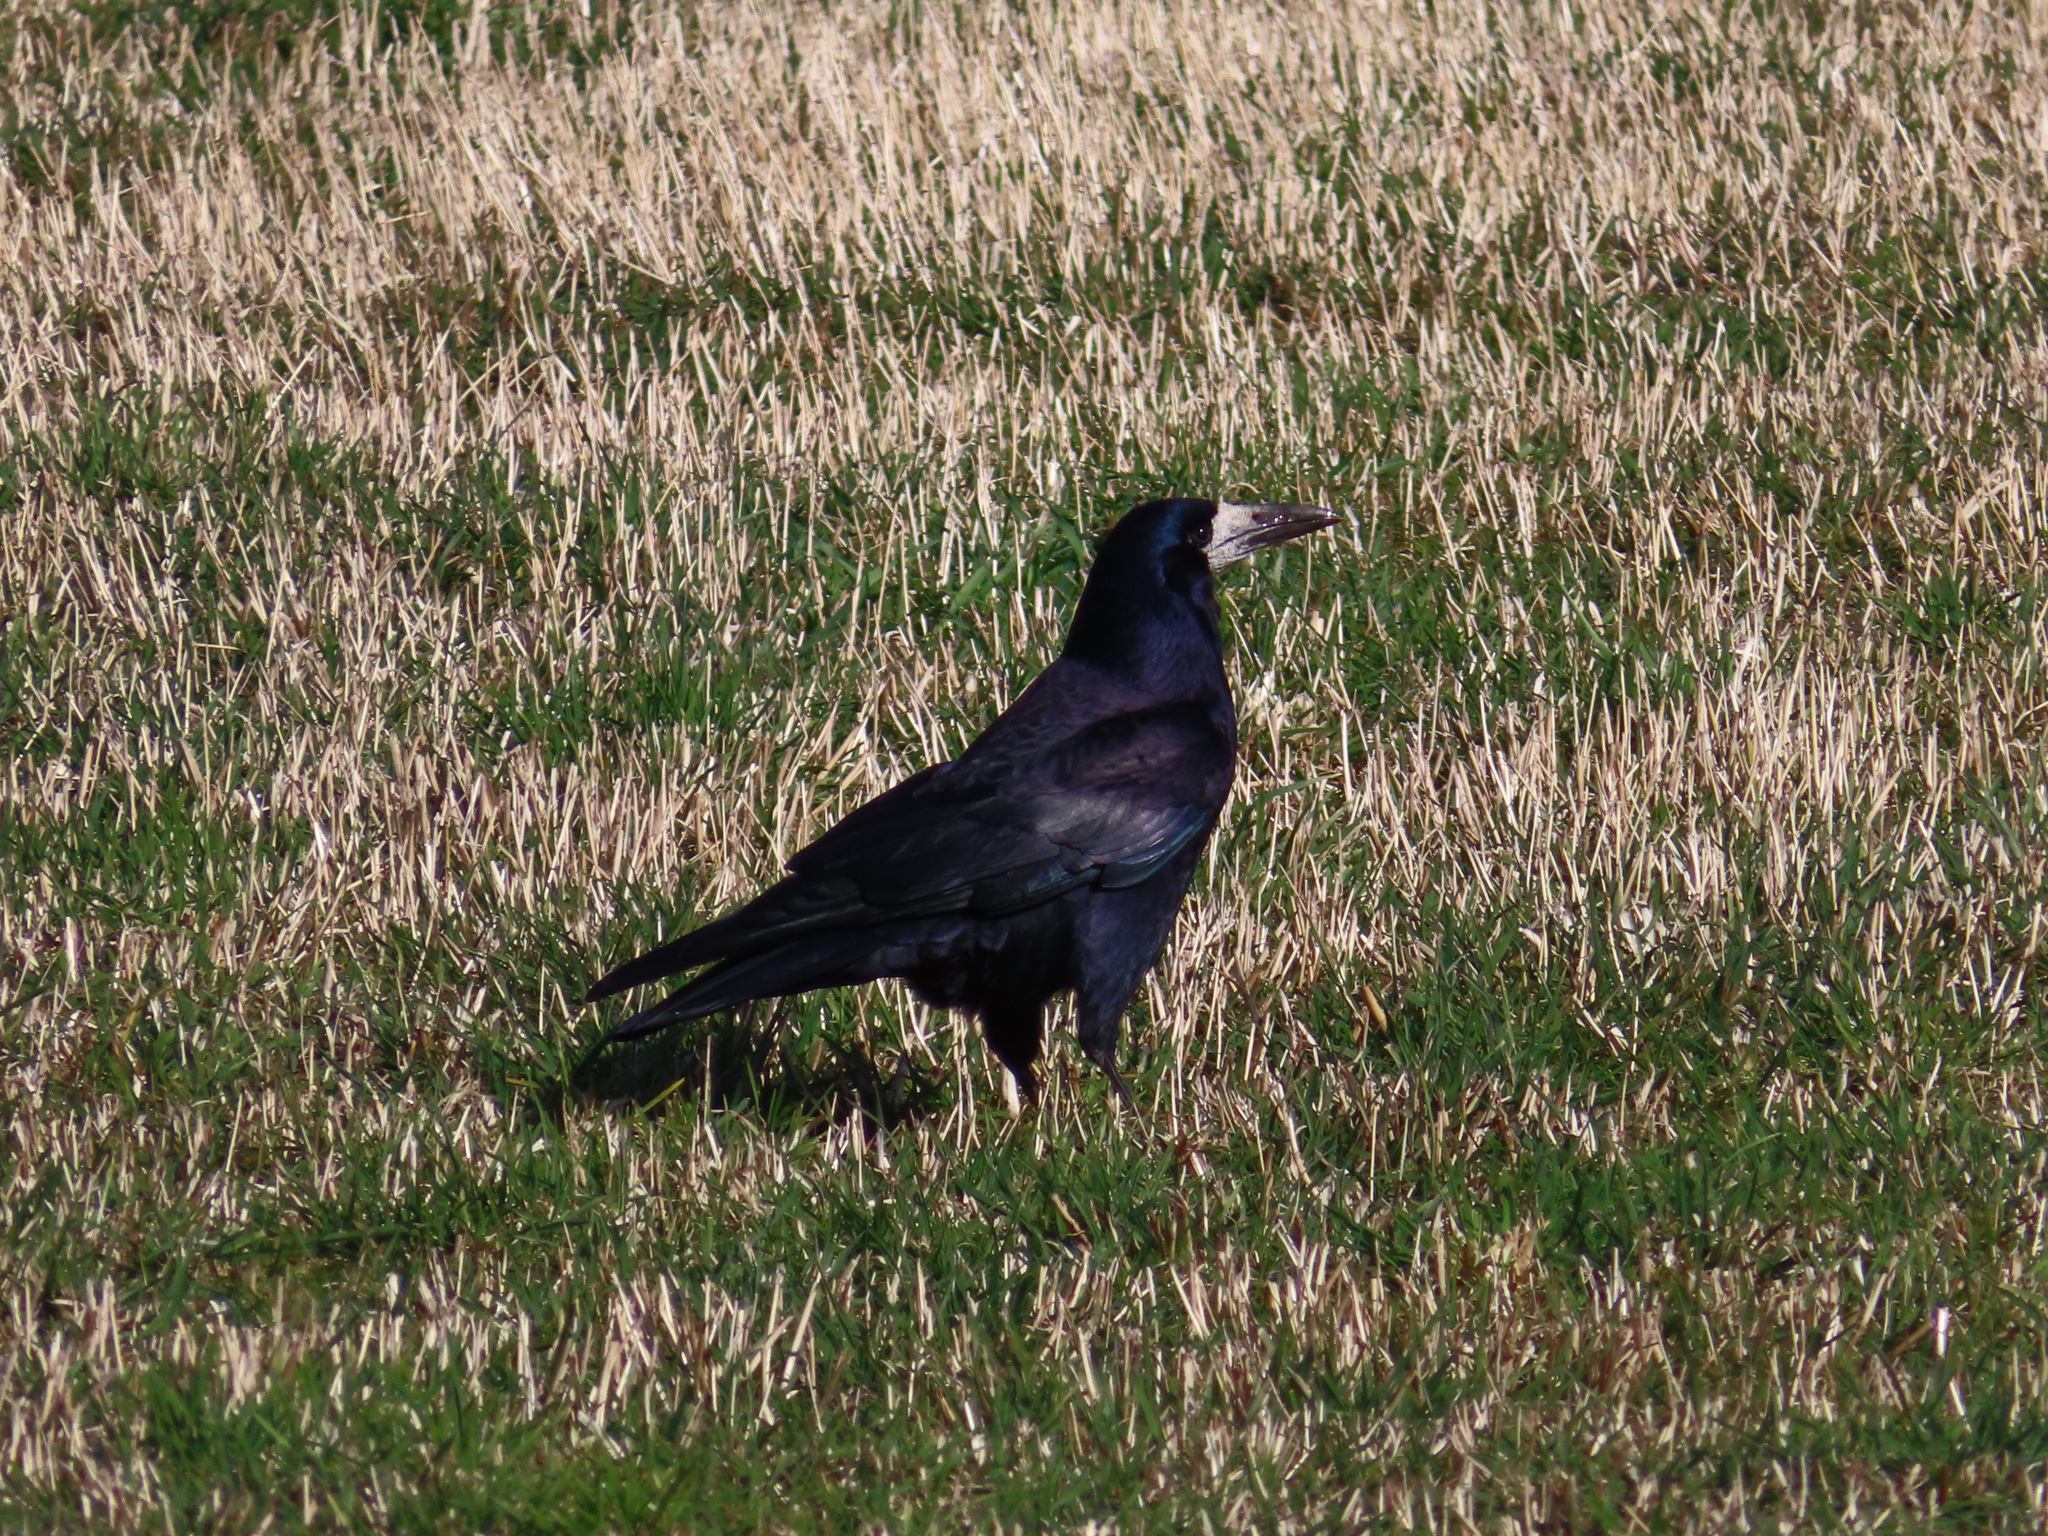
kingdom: Animalia
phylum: Chordata
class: Aves
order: Passeriformes
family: Corvidae
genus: Corvus
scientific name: Corvus frugilegus
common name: Rook
